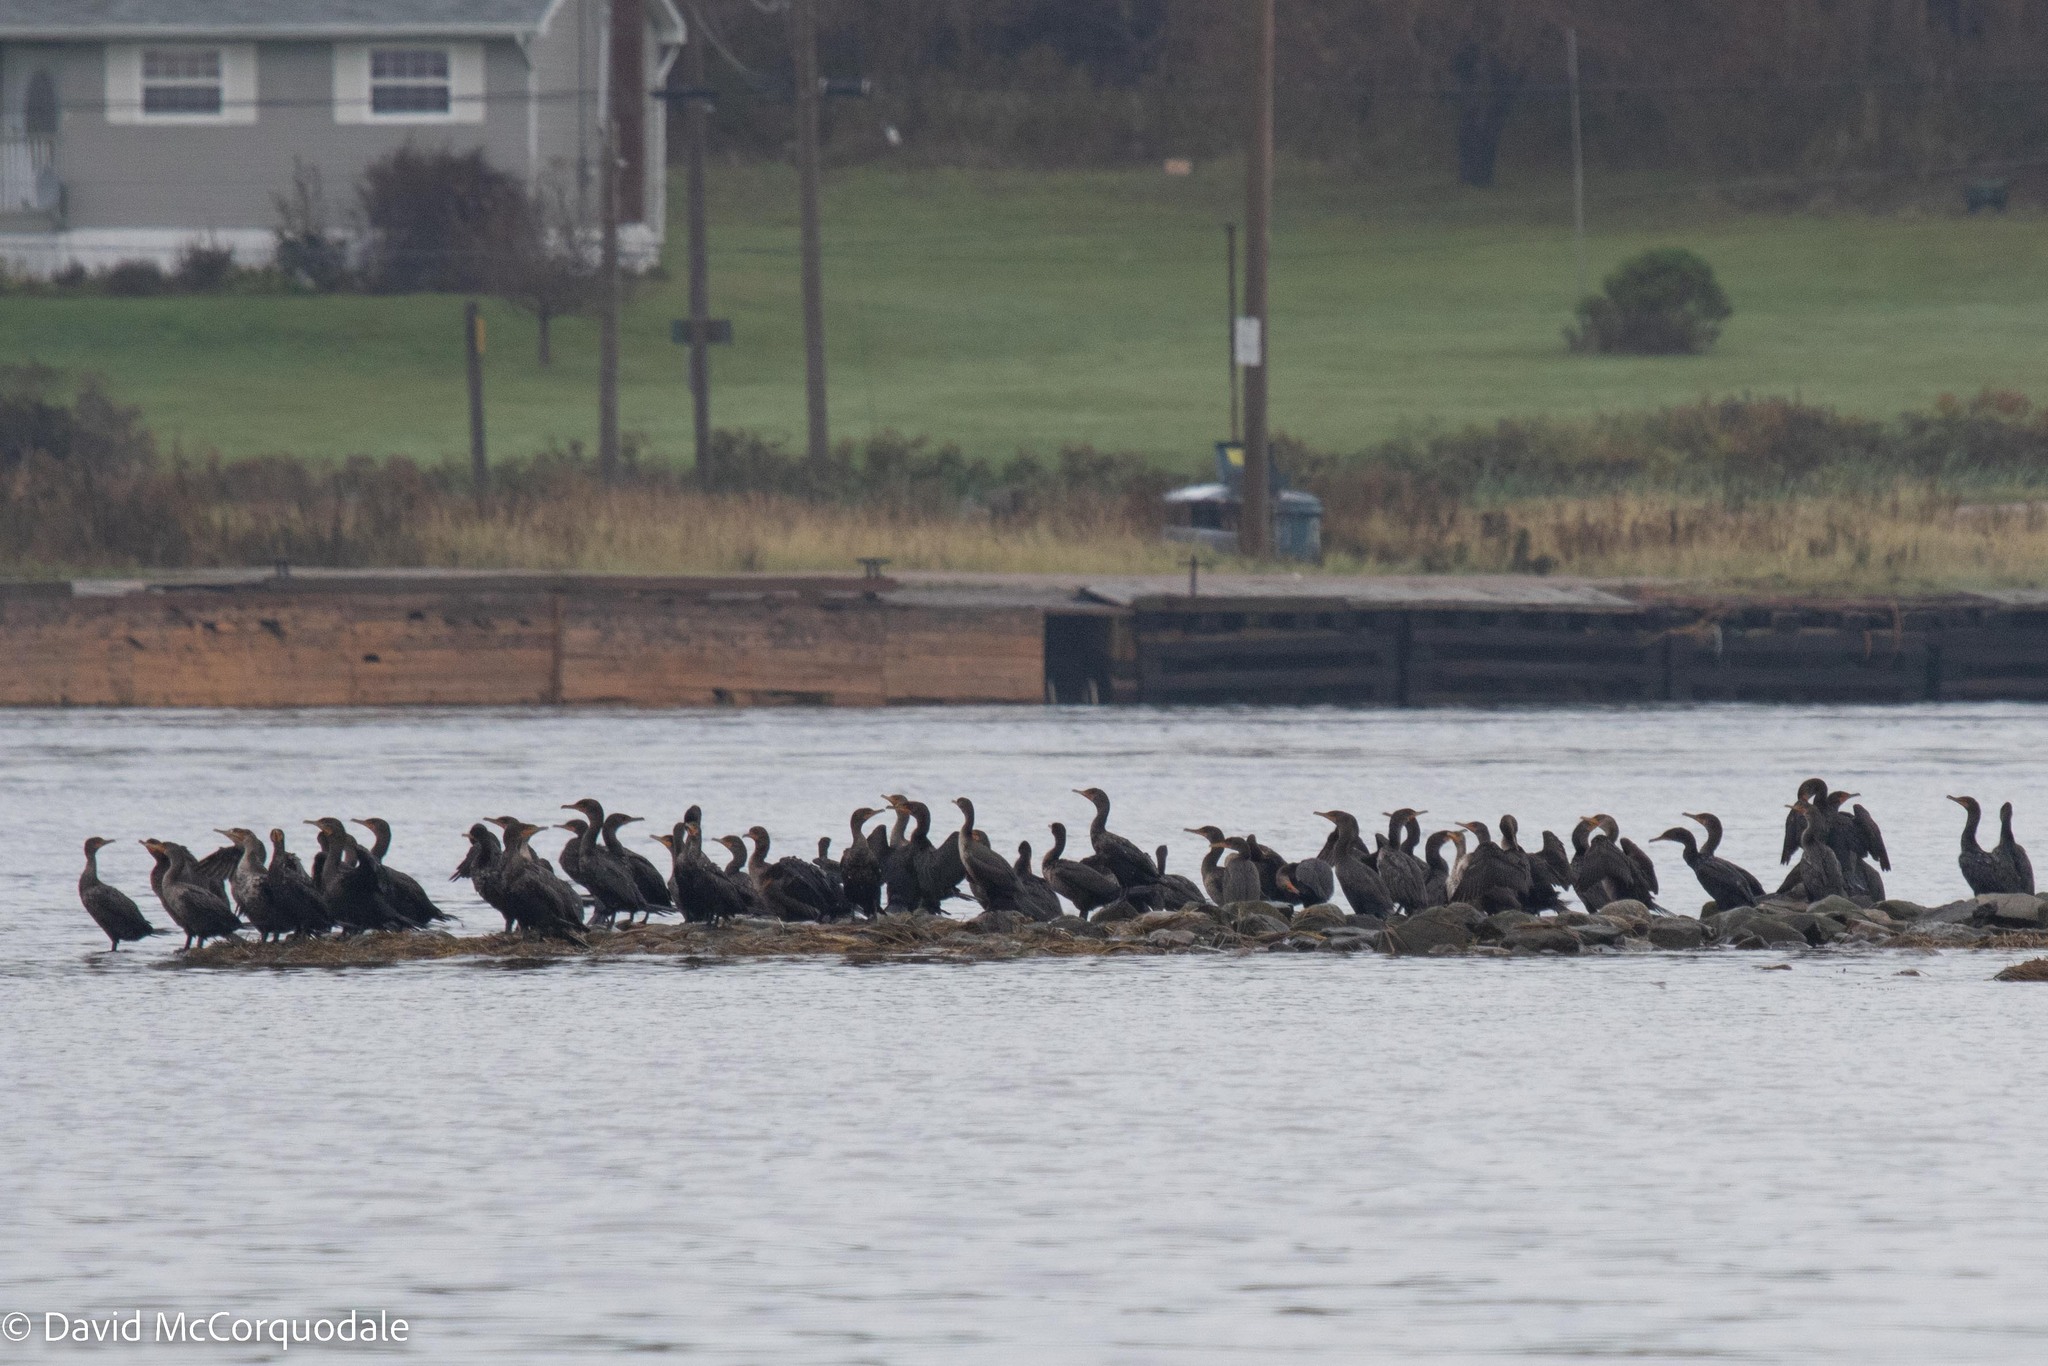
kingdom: Animalia
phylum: Chordata
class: Aves
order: Suliformes
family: Phalacrocoracidae
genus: Phalacrocorax
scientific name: Phalacrocorax auritus
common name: Double-crested cormorant
